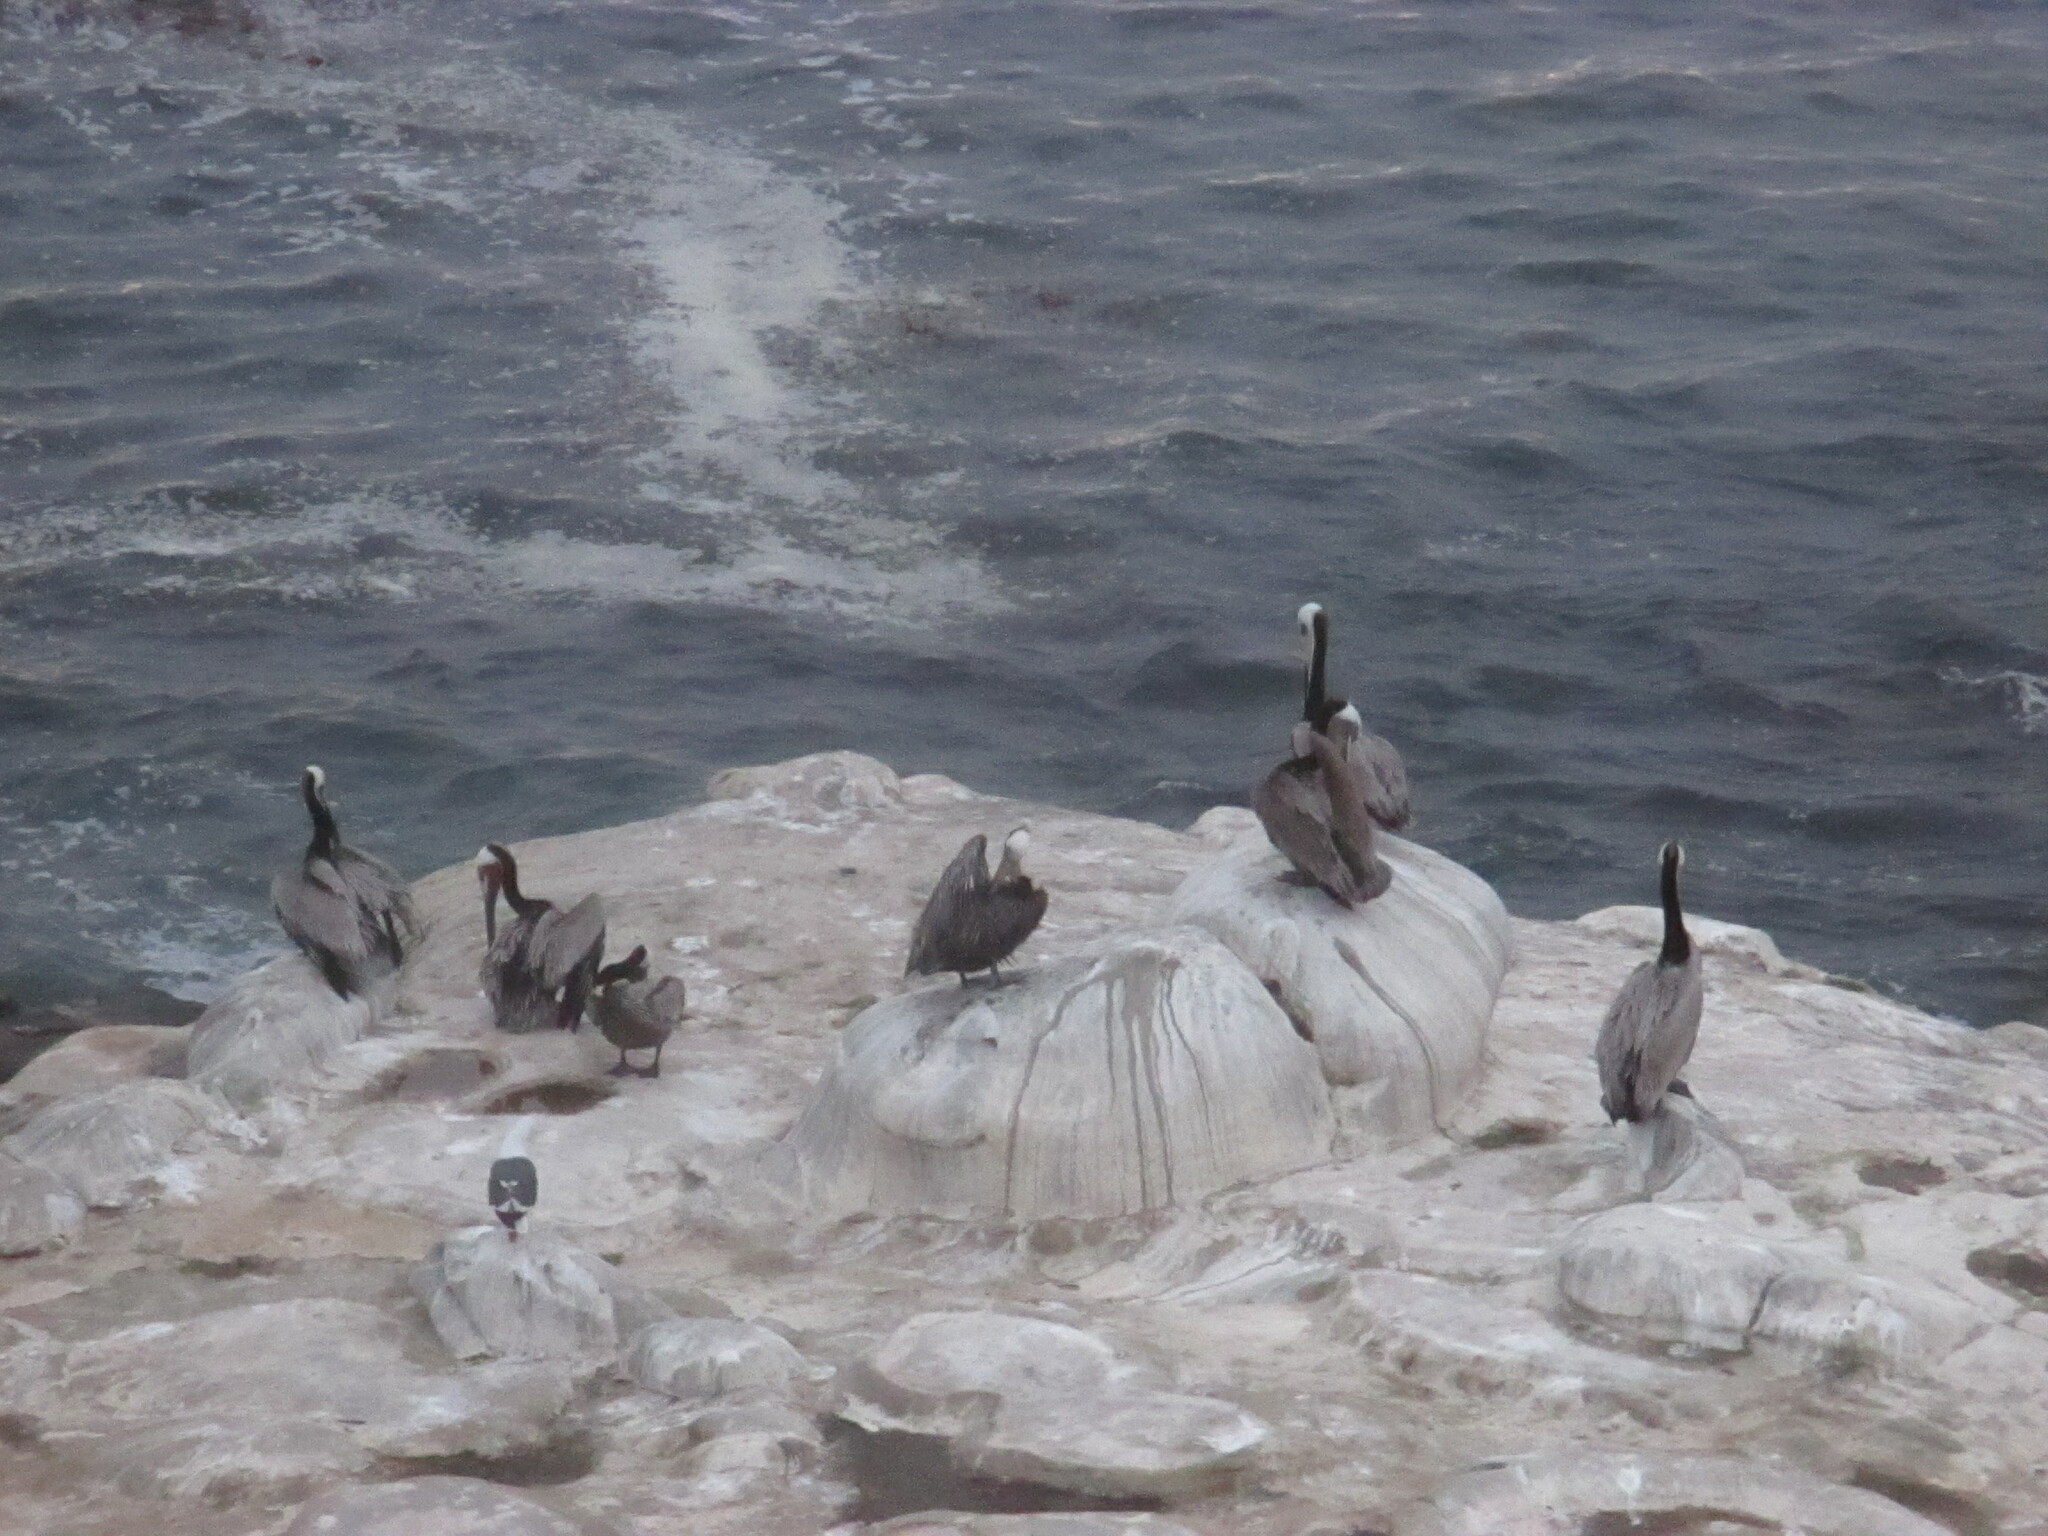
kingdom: Animalia
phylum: Chordata
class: Aves
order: Pelecaniformes
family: Pelecanidae
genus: Pelecanus
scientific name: Pelecanus occidentalis
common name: Brown pelican
